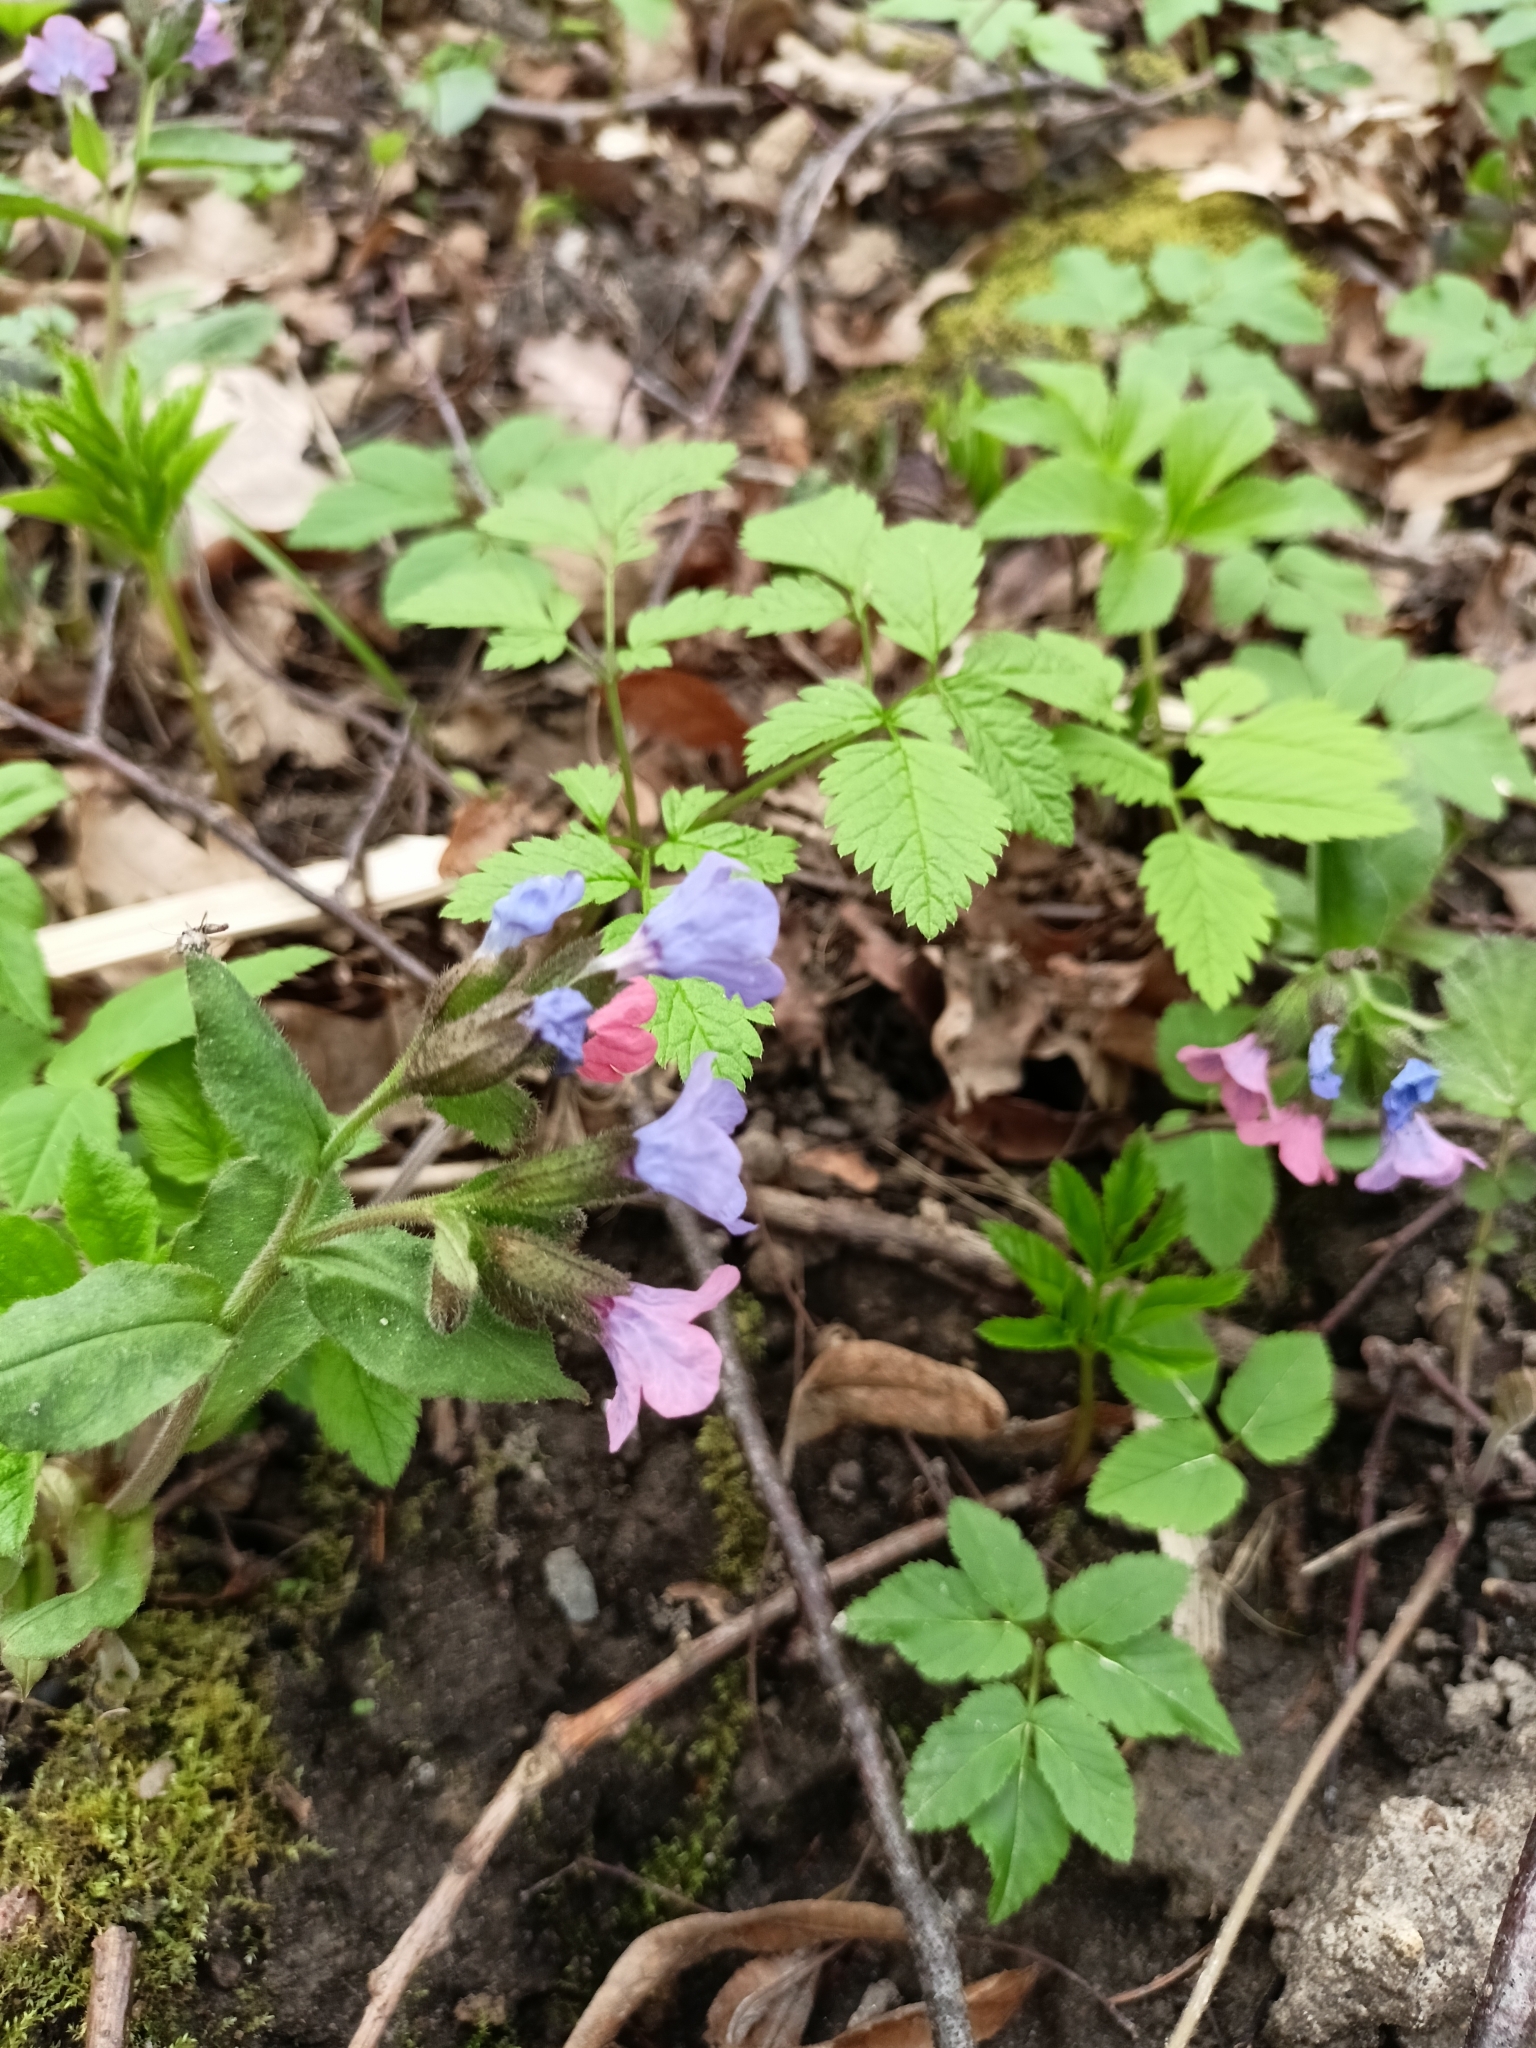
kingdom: Plantae
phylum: Tracheophyta
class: Magnoliopsida
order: Boraginales
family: Boraginaceae
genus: Pulmonaria
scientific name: Pulmonaria obscura
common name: Suffolk lungwort
